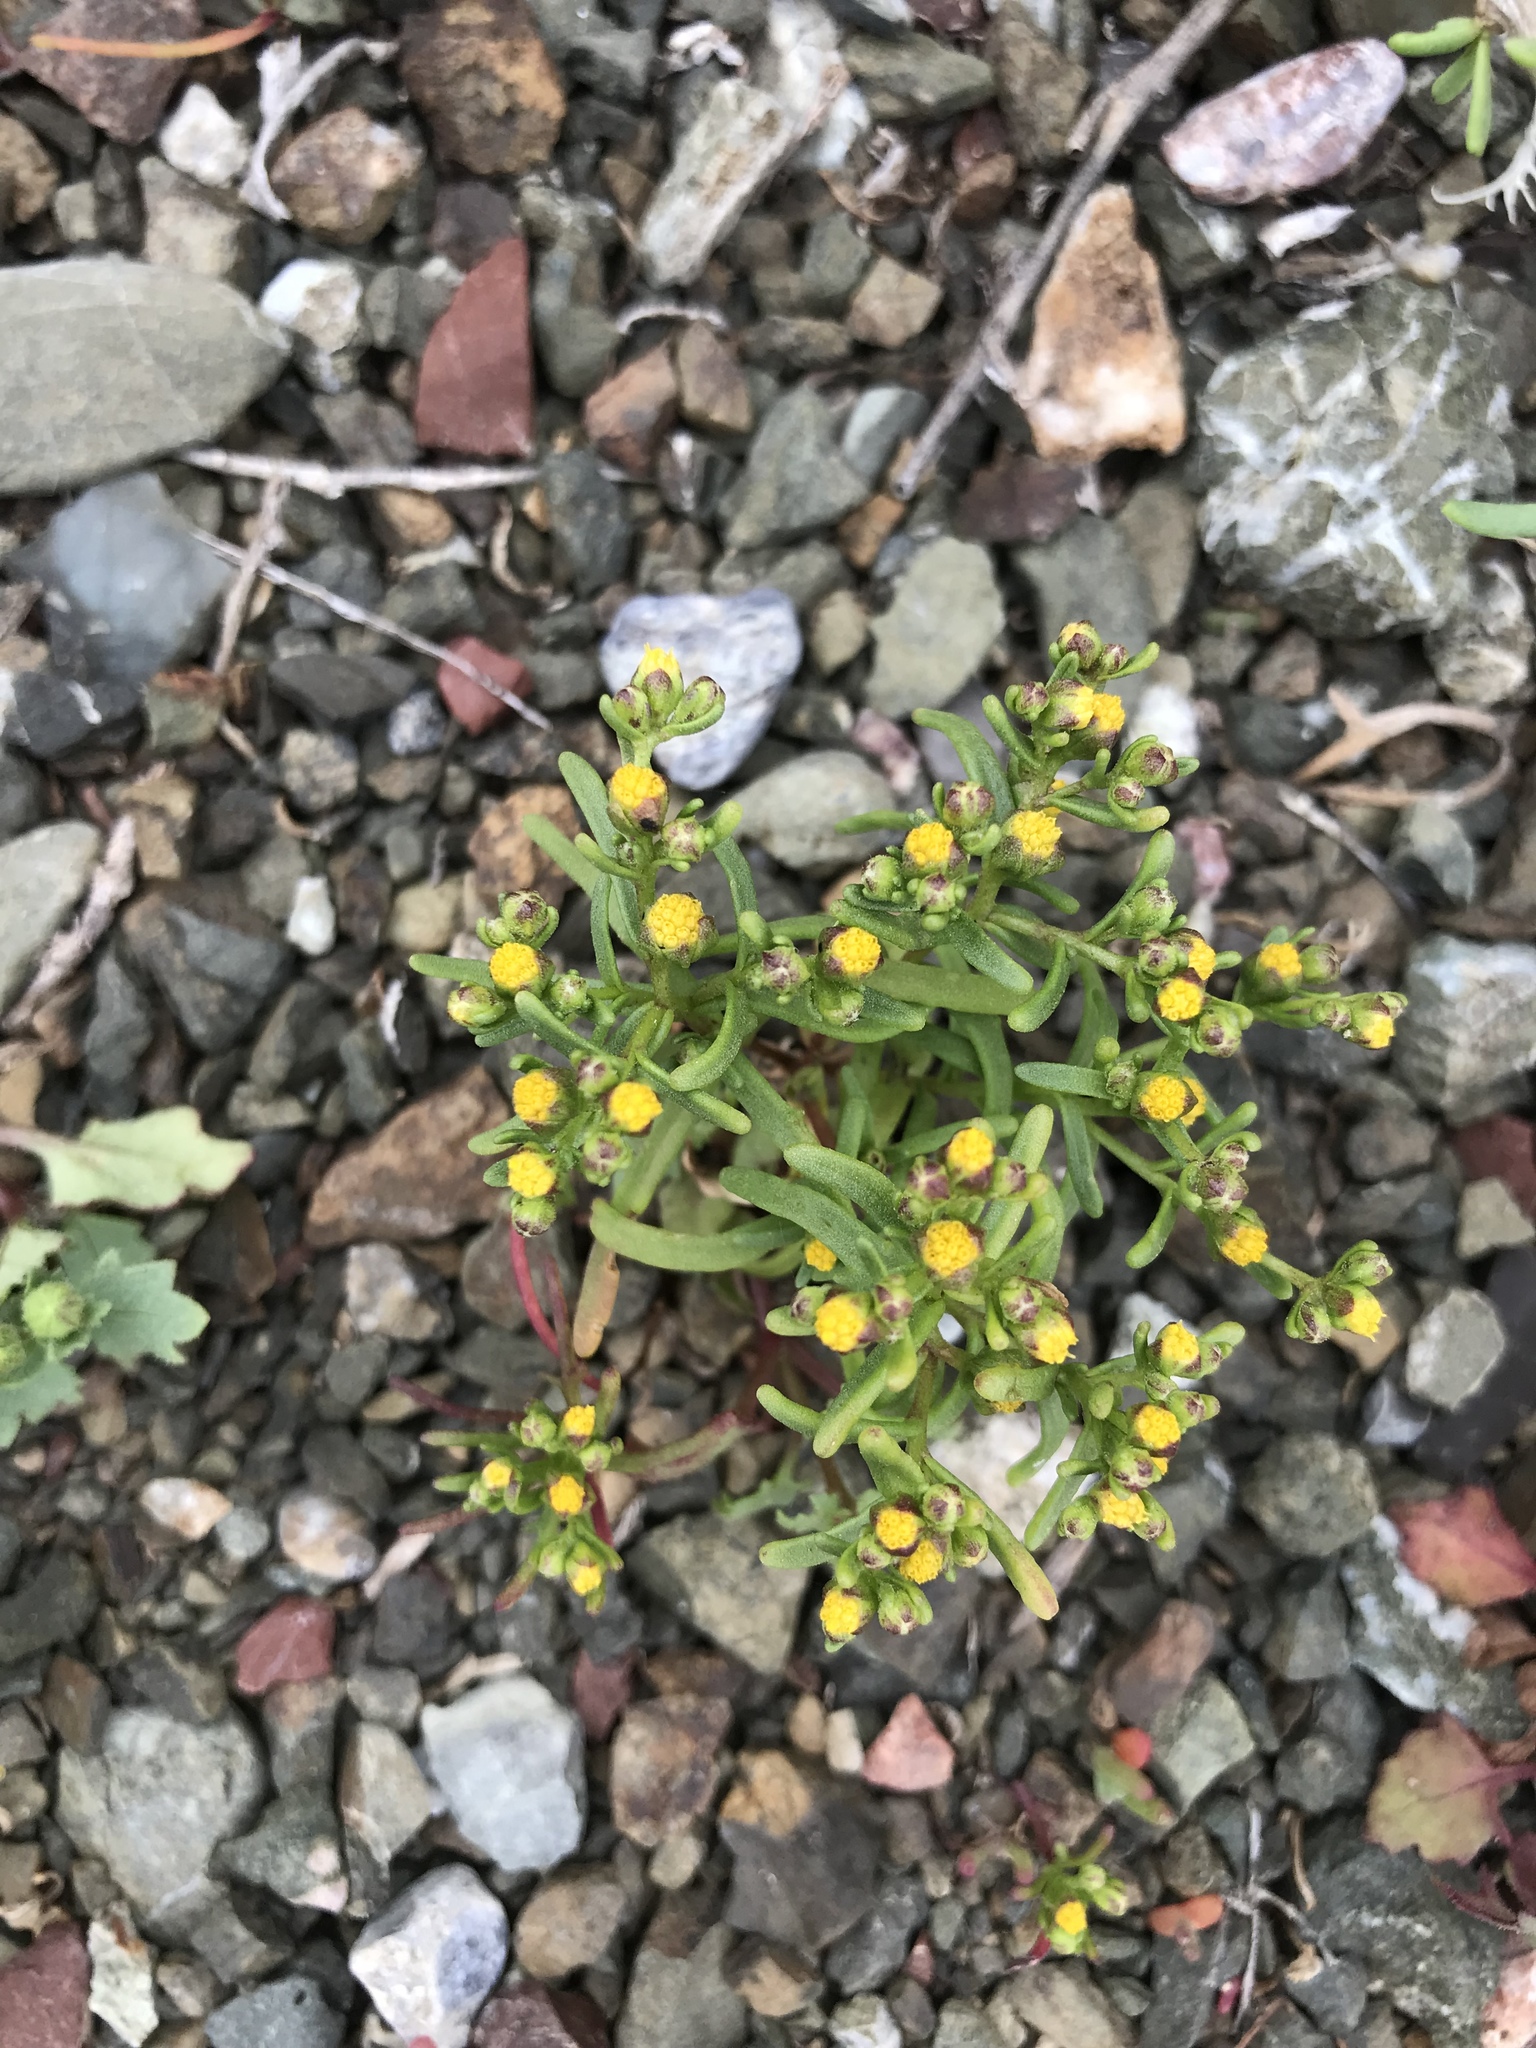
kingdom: Plantae
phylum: Tracheophyta
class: Magnoliopsida
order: Asterales
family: Asteraceae
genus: Amblyopappus
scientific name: Amblyopappus pusillus
